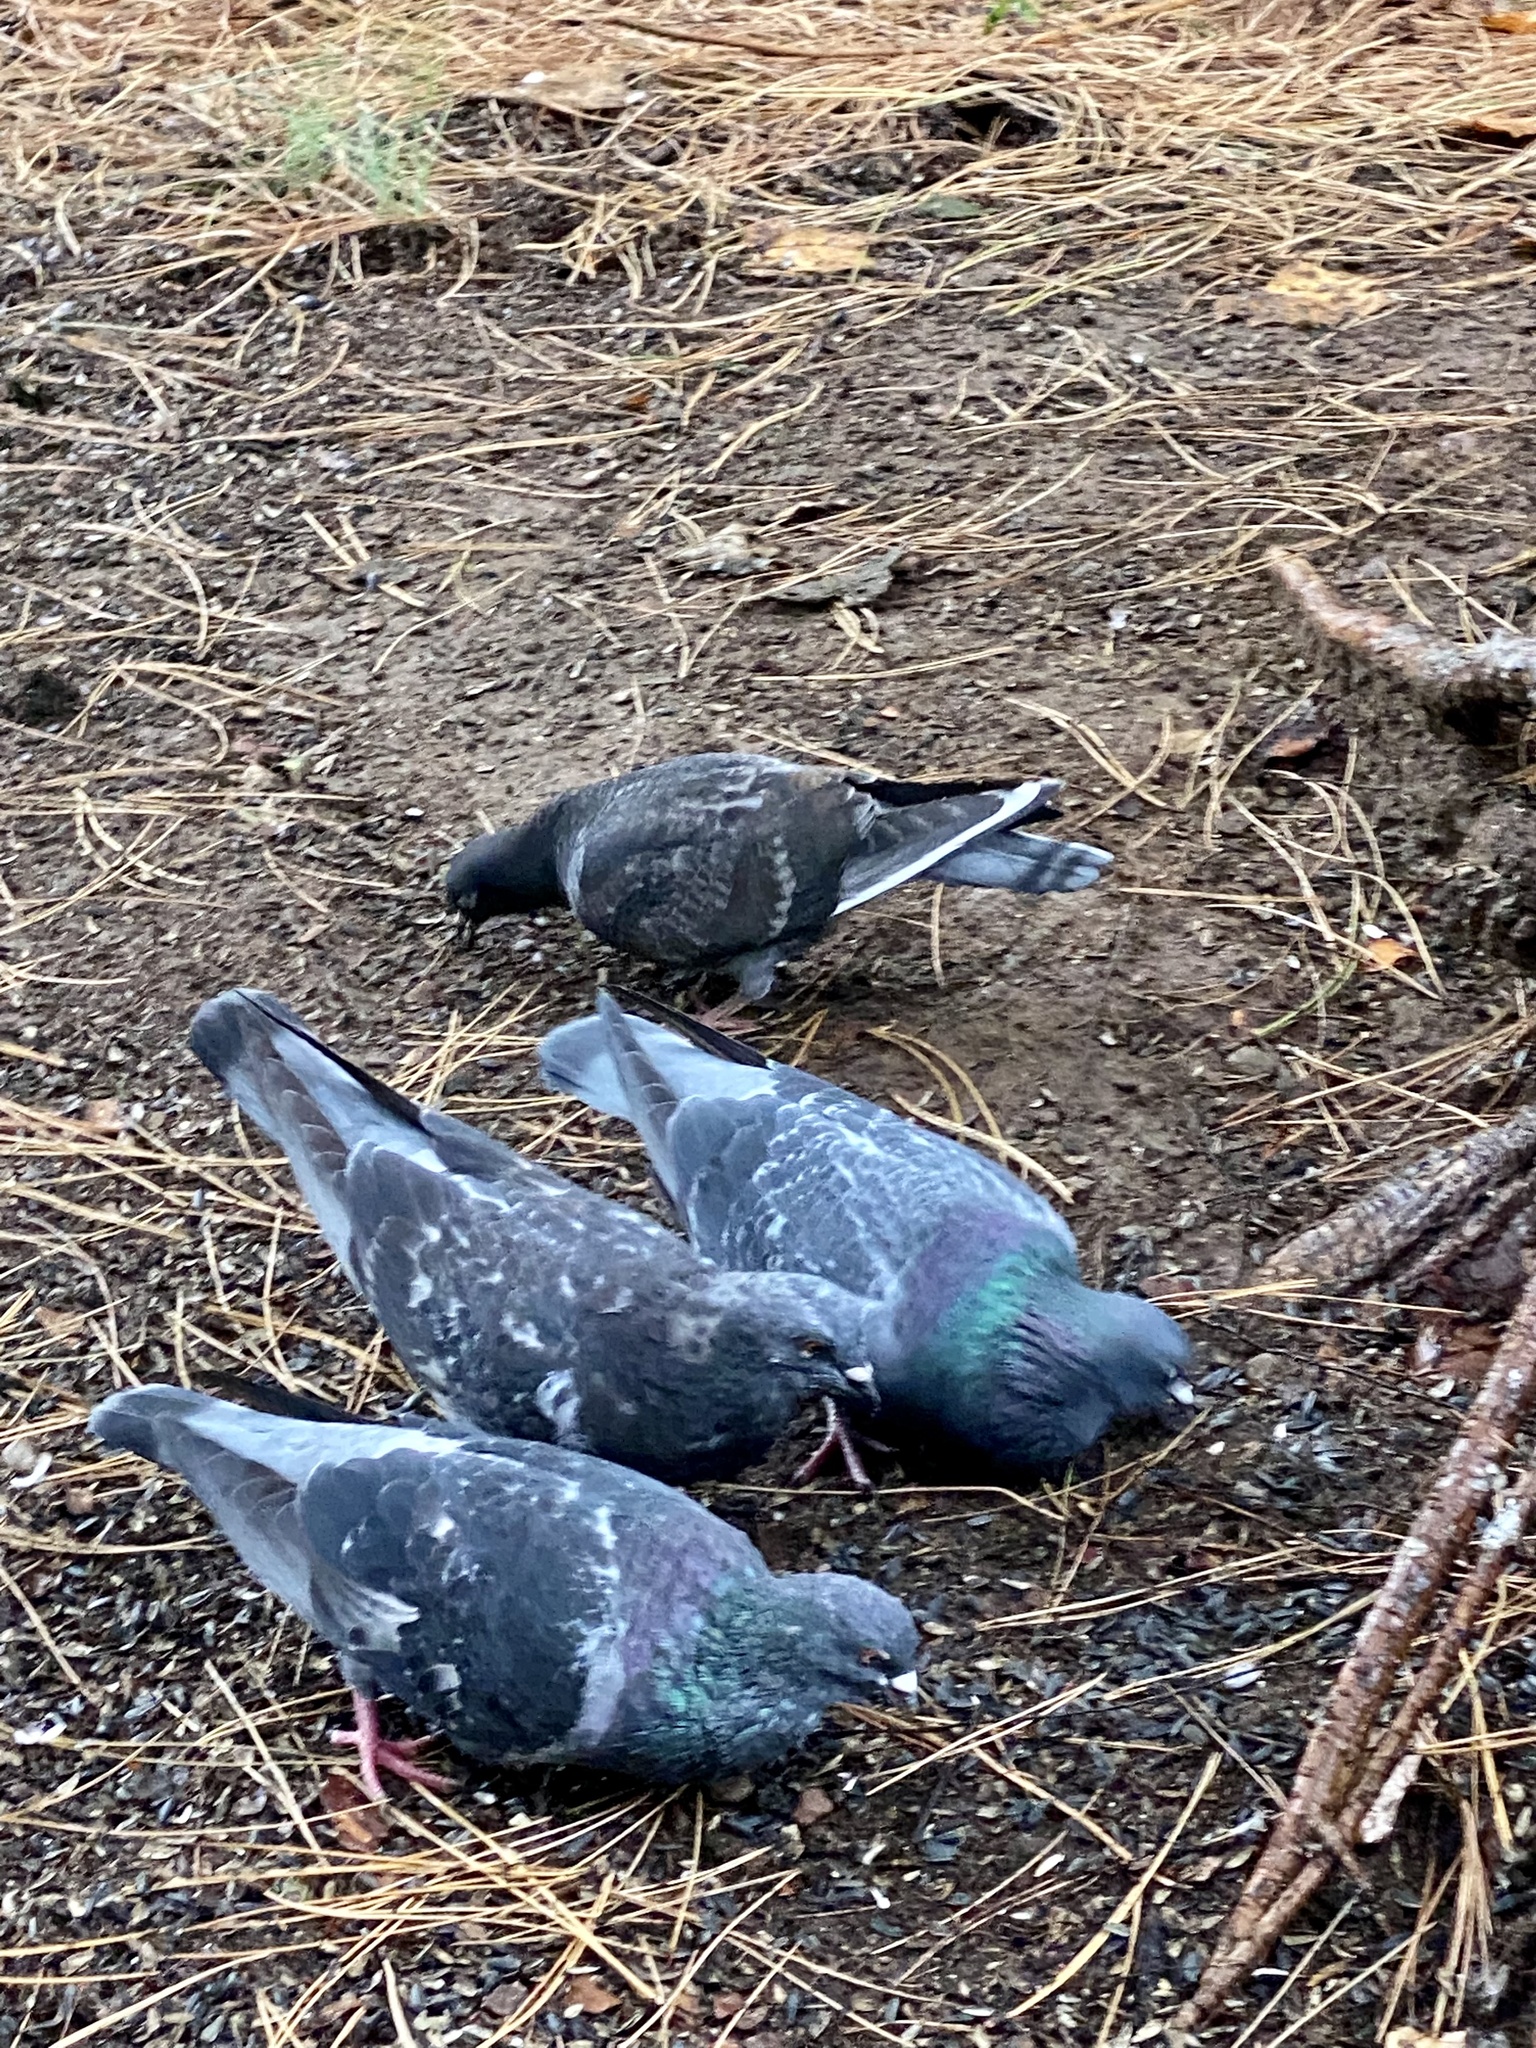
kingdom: Animalia
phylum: Chordata
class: Aves
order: Columbiformes
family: Columbidae
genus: Columba
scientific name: Columba livia
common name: Rock pigeon
